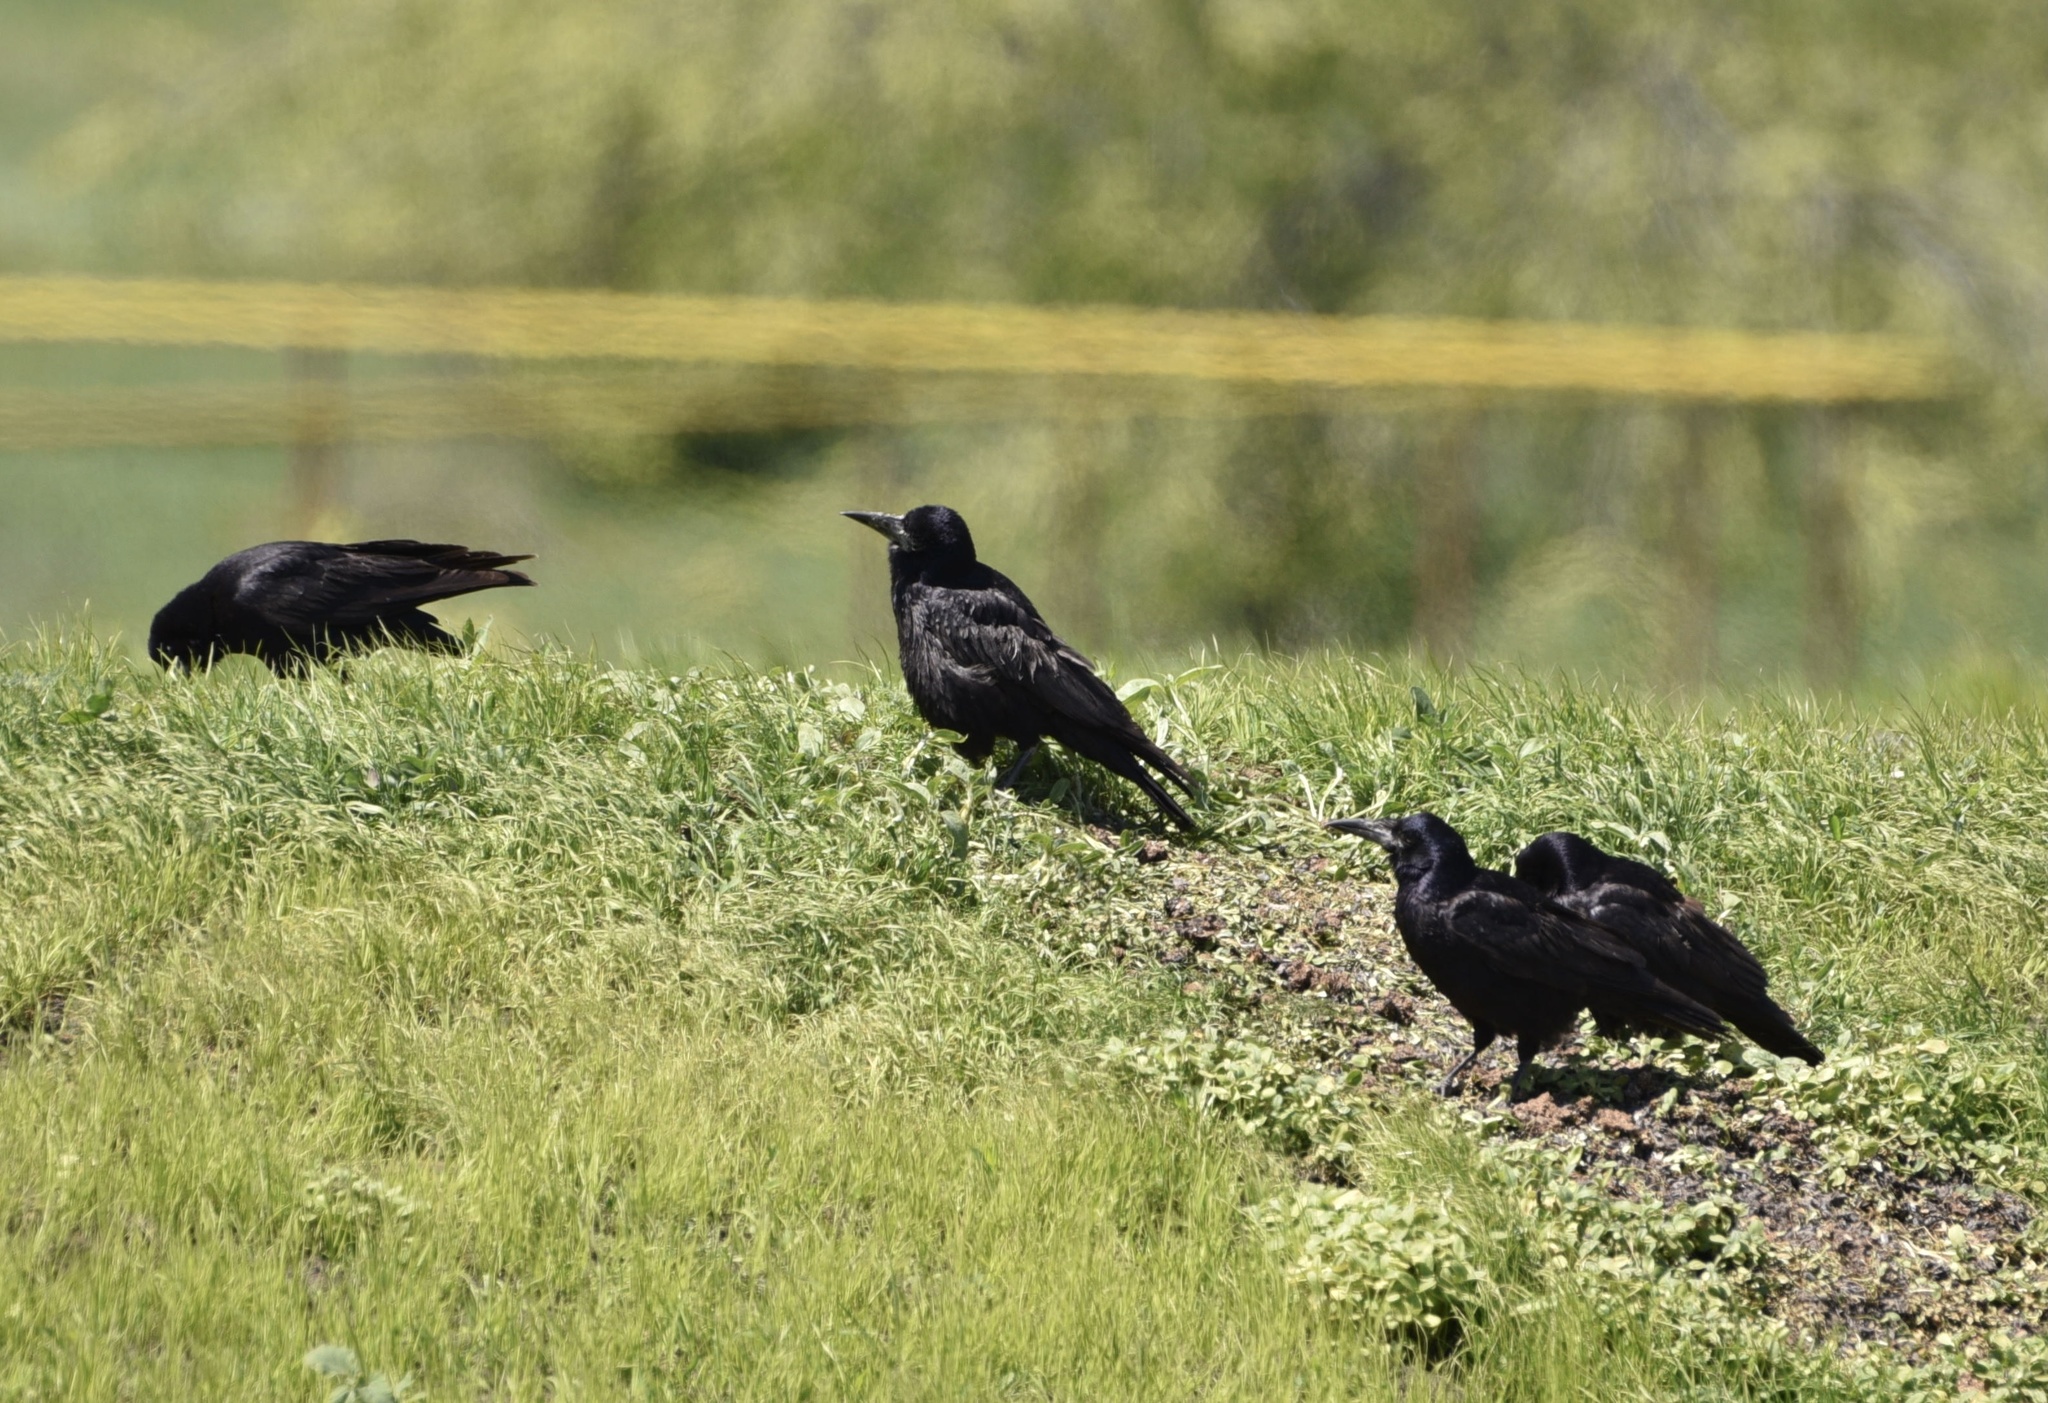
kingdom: Animalia
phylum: Chordata
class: Aves
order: Passeriformes
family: Corvidae
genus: Corvus
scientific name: Corvus frugilegus
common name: Rook
